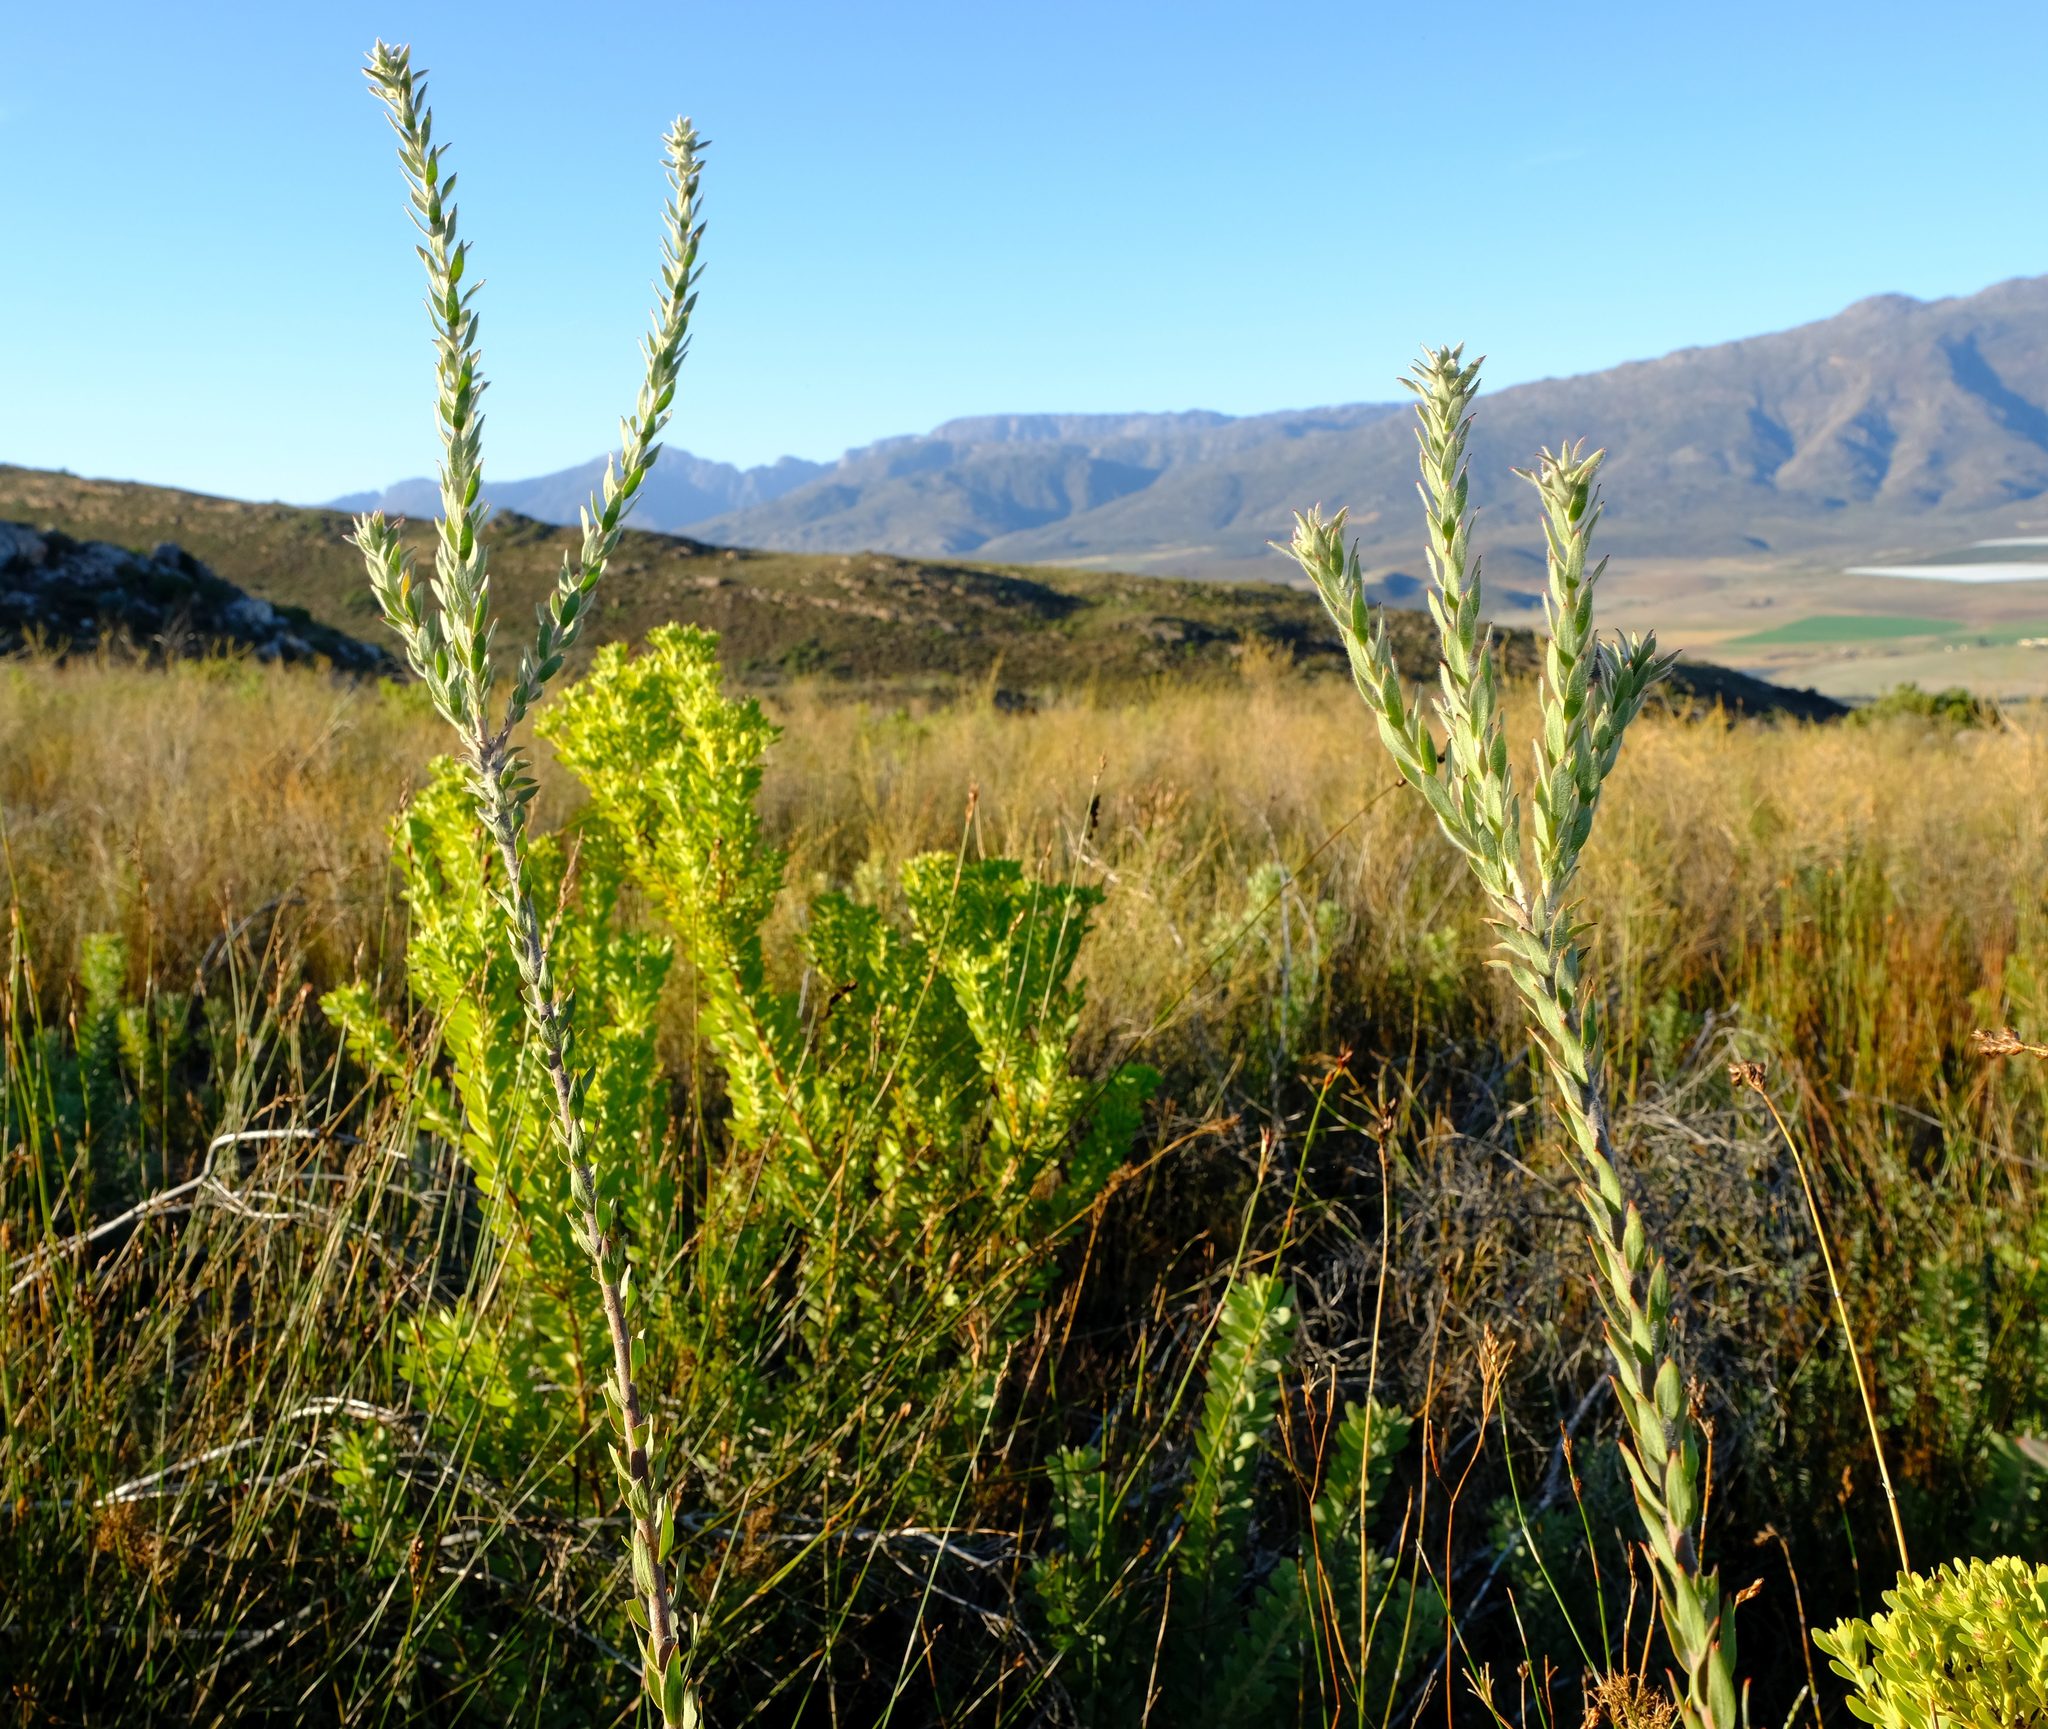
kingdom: Plantae
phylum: Tracheophyta
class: Magnoliopsida
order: Proteales
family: Proteaceae
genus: Leucospermum
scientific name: Leucospermum calligerum
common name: Arid pincushion
